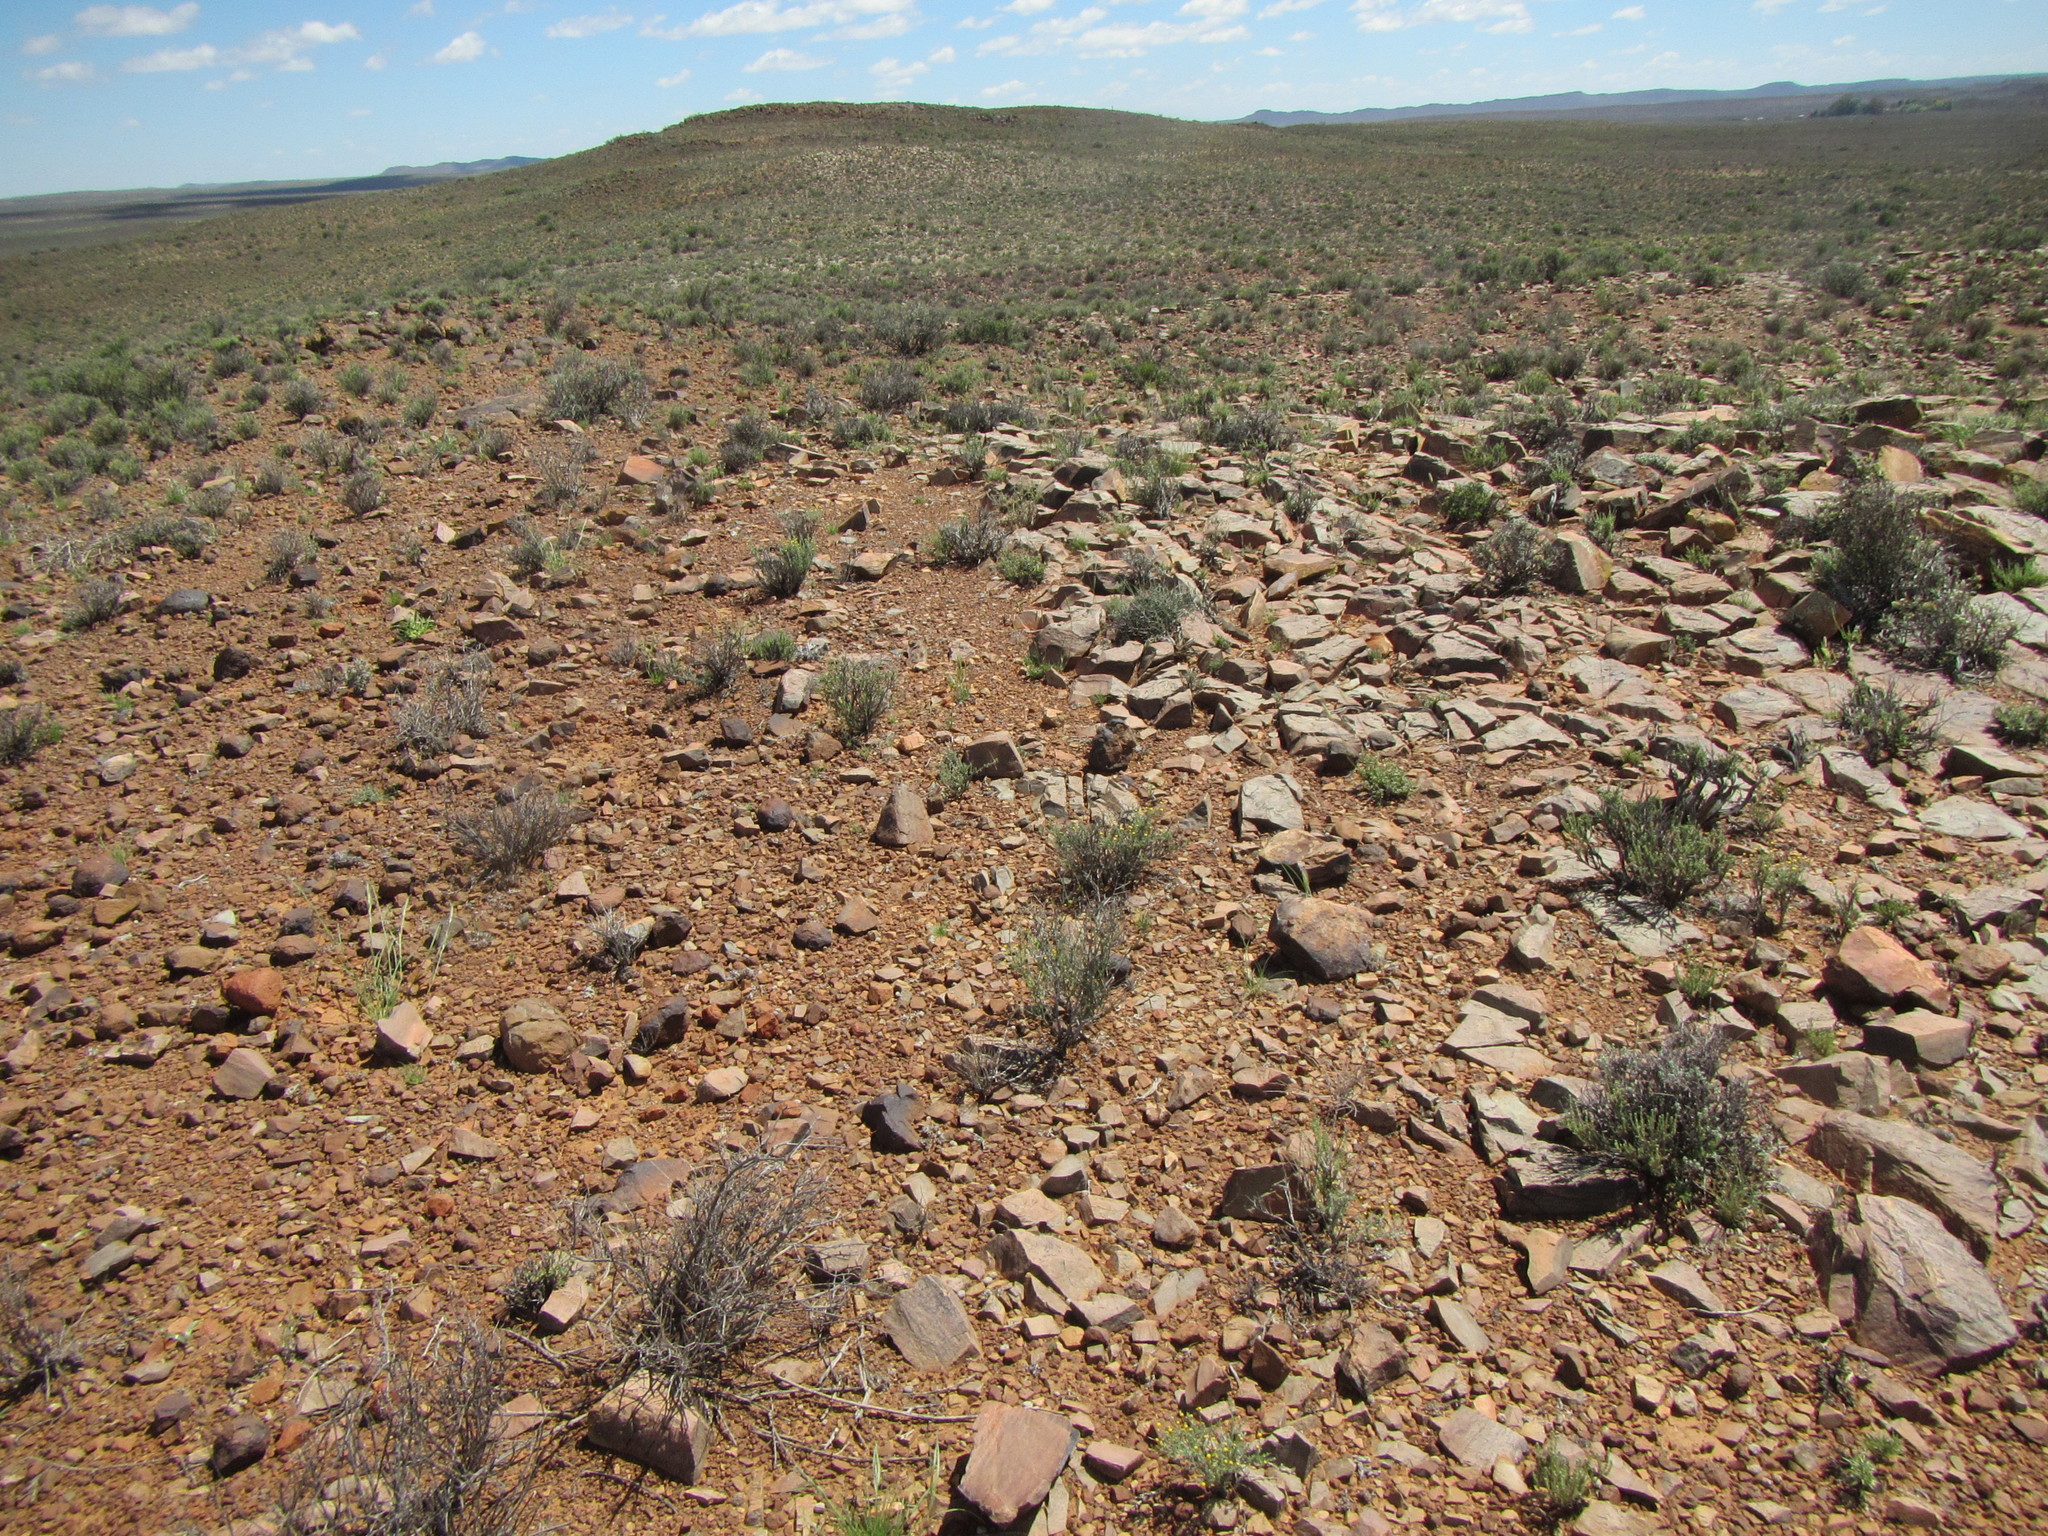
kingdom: Plantae
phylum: Tracheophyta
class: Magnoliopsida
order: Asterales
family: Asteraceae
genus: Pteronia
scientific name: Pteronia glauca
